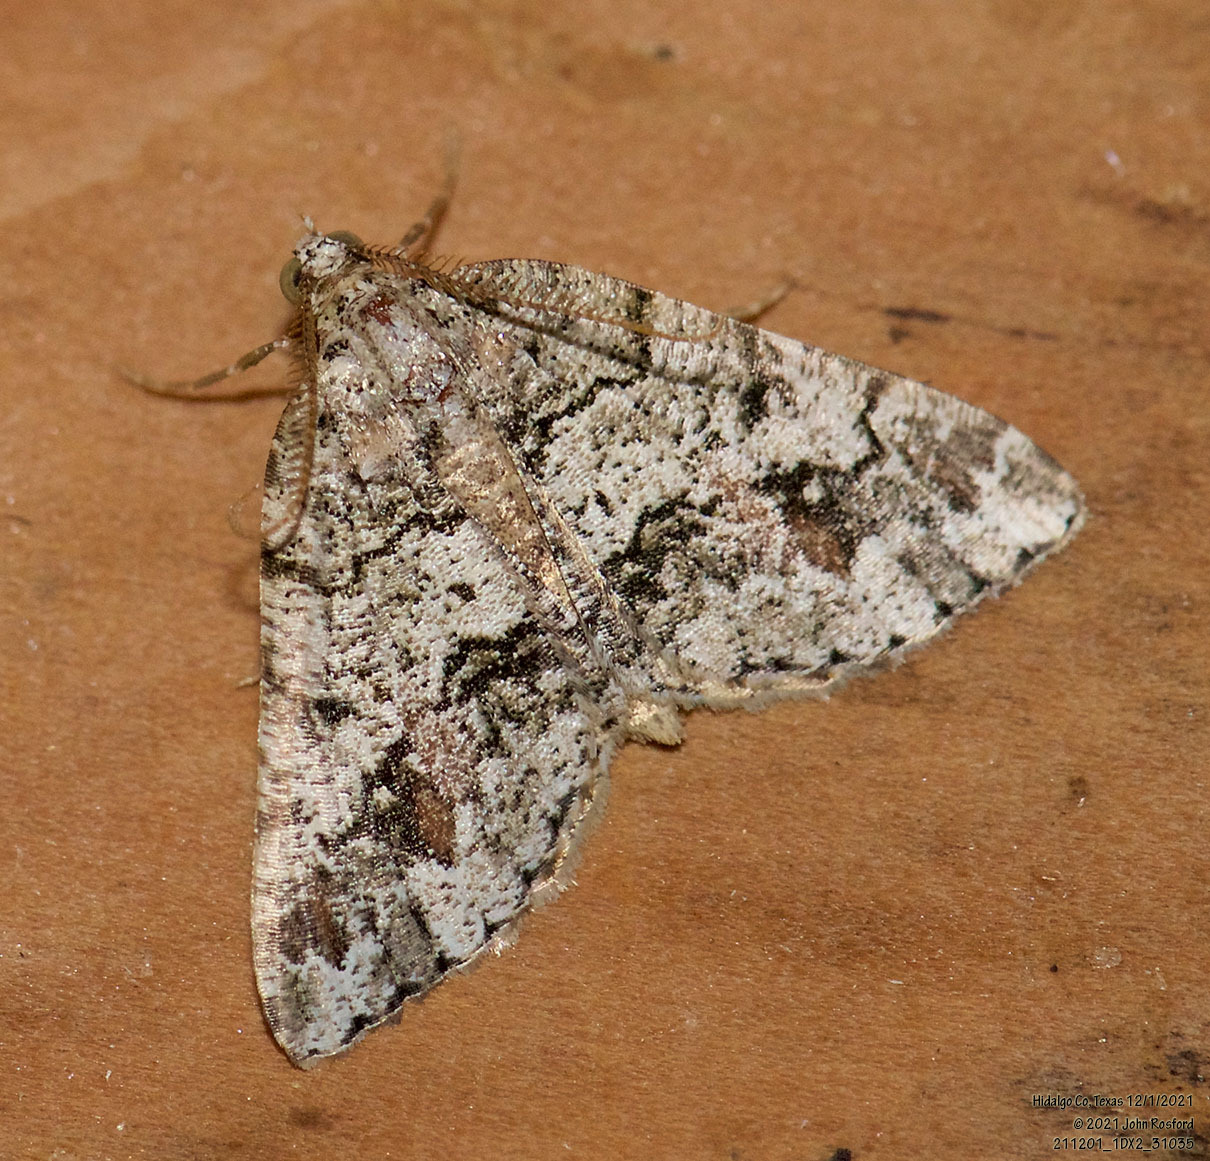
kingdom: Animalia
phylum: Arthropoda
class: Insecta
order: Lepidoptera
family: Geometridae
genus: Macaria
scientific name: Macaria graphidaria
